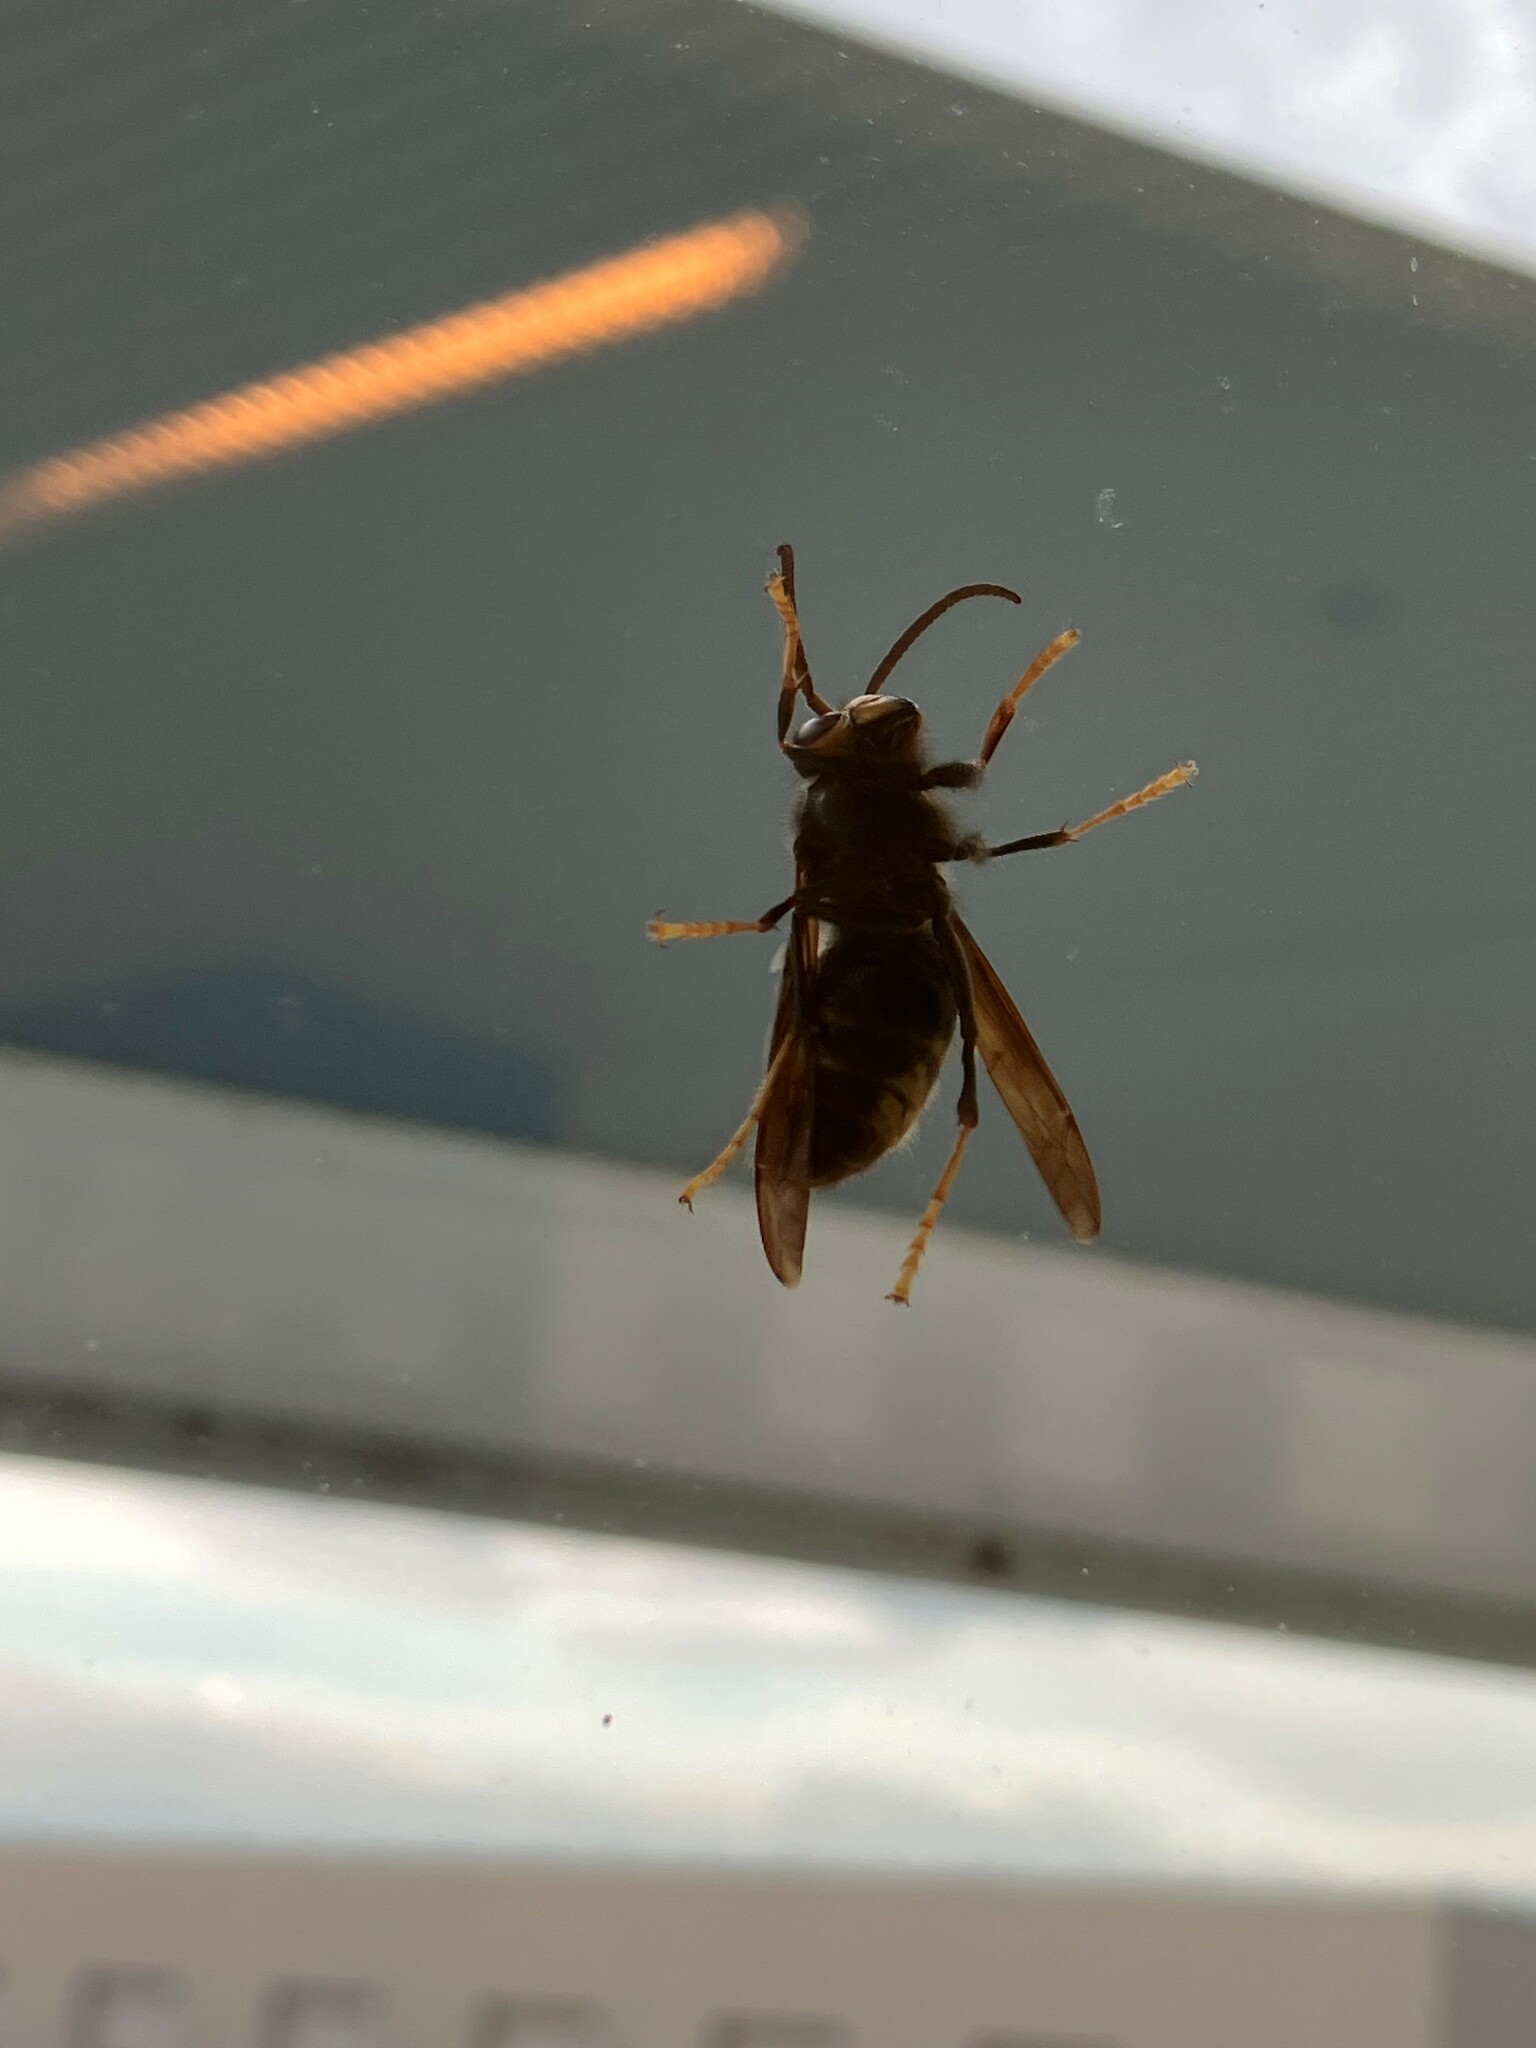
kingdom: Animalia
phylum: Arthropoda
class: Insecta
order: Hymenoptera
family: Vespidae
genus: Vespa
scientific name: Vespa velutina
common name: Asian hornet
